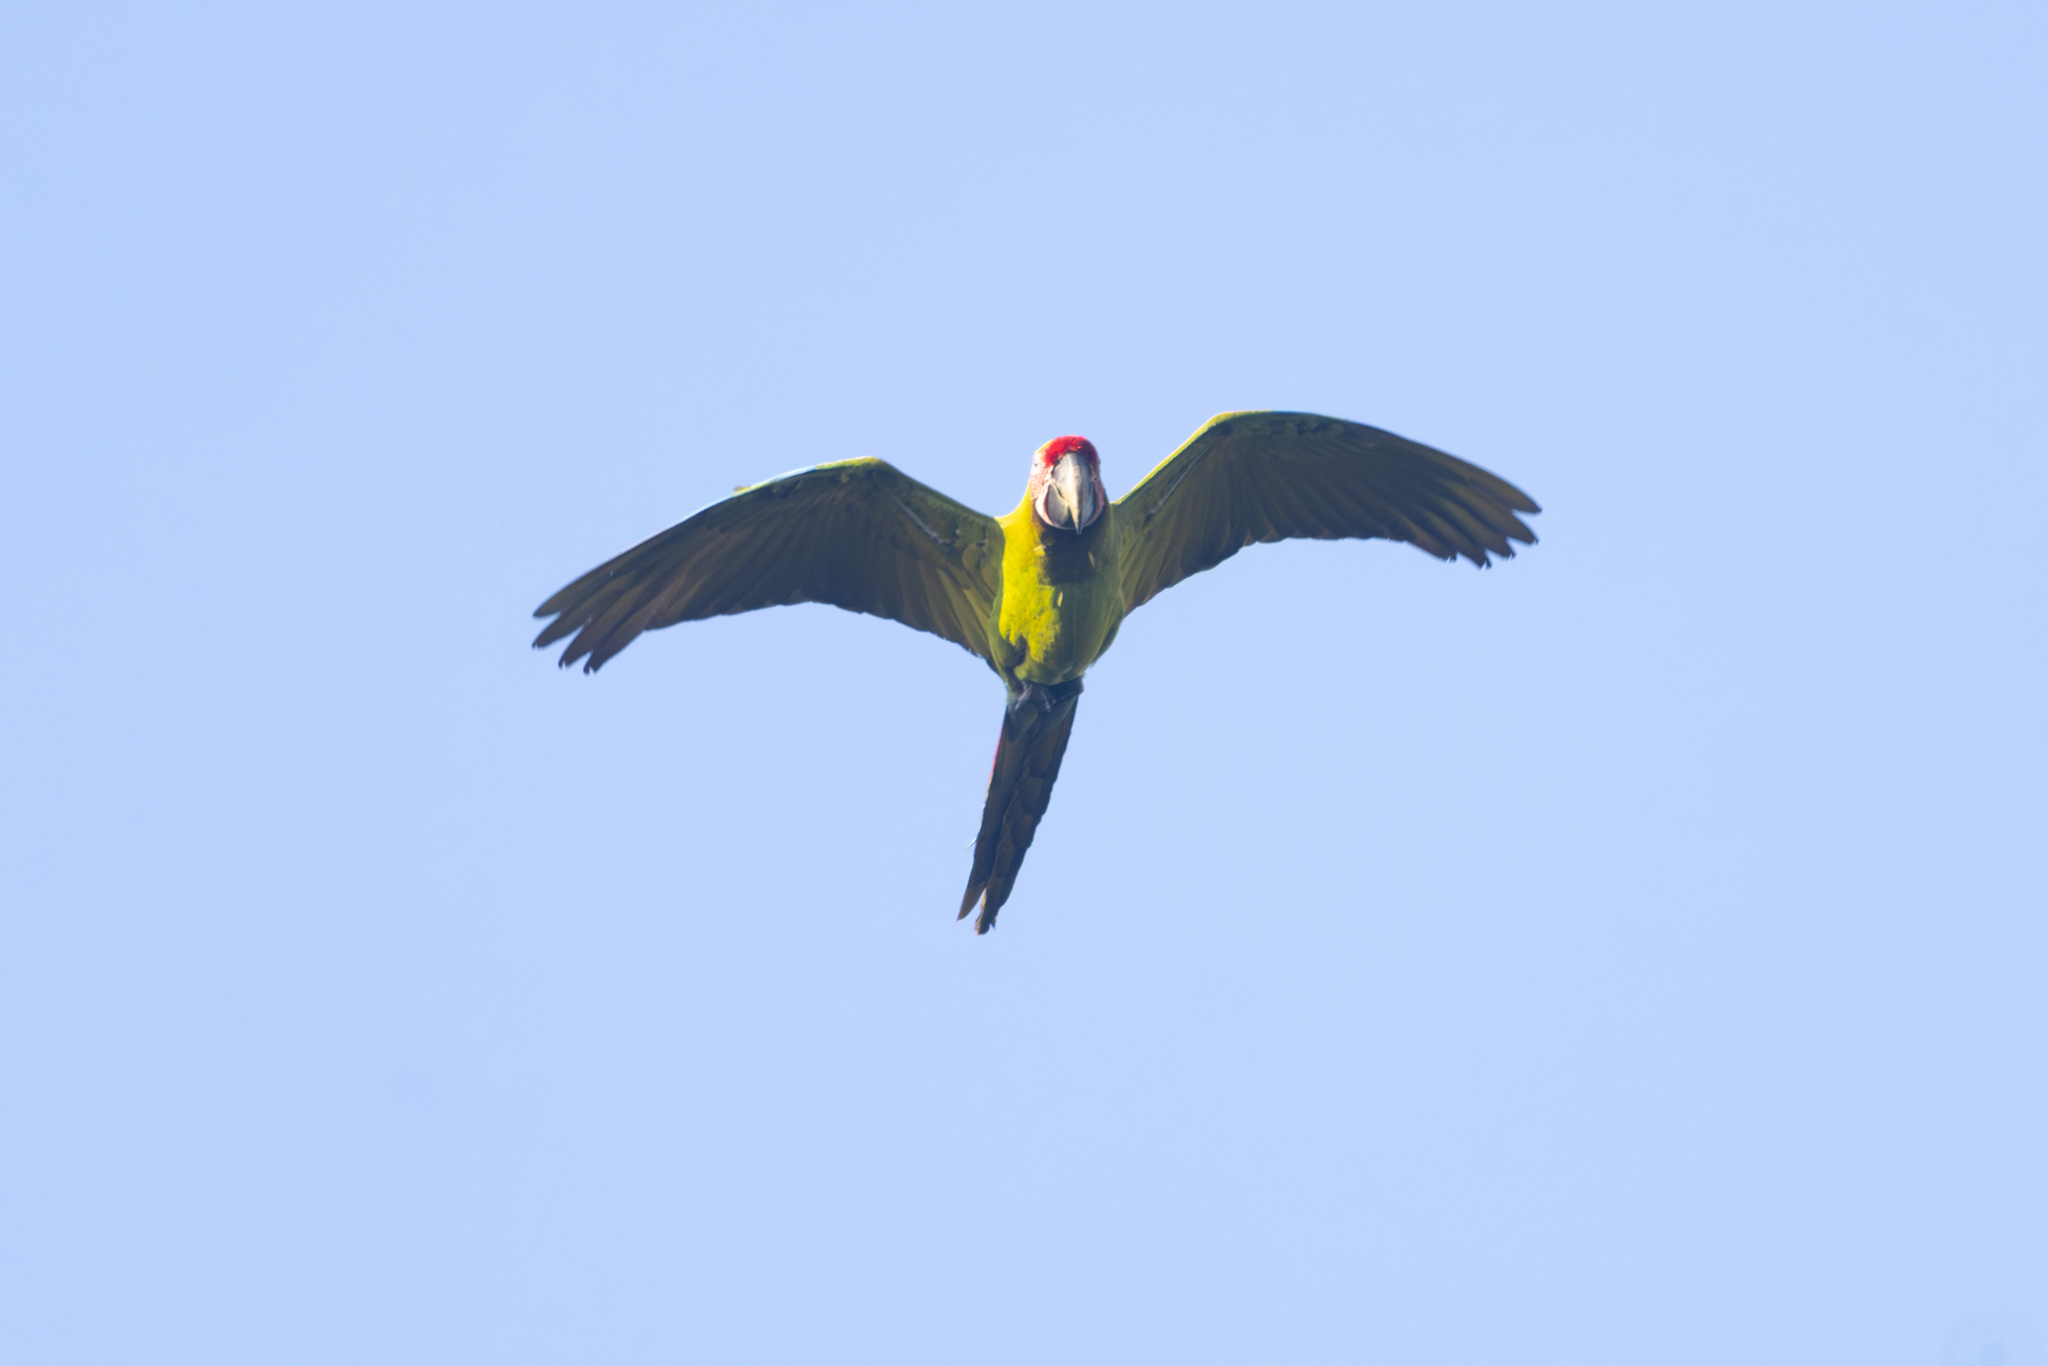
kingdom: Animalia
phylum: Chordata
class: Aves
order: Psittaciformes
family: Psittacidae
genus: Ara
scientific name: Ara ambiguus
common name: Great green macaw
